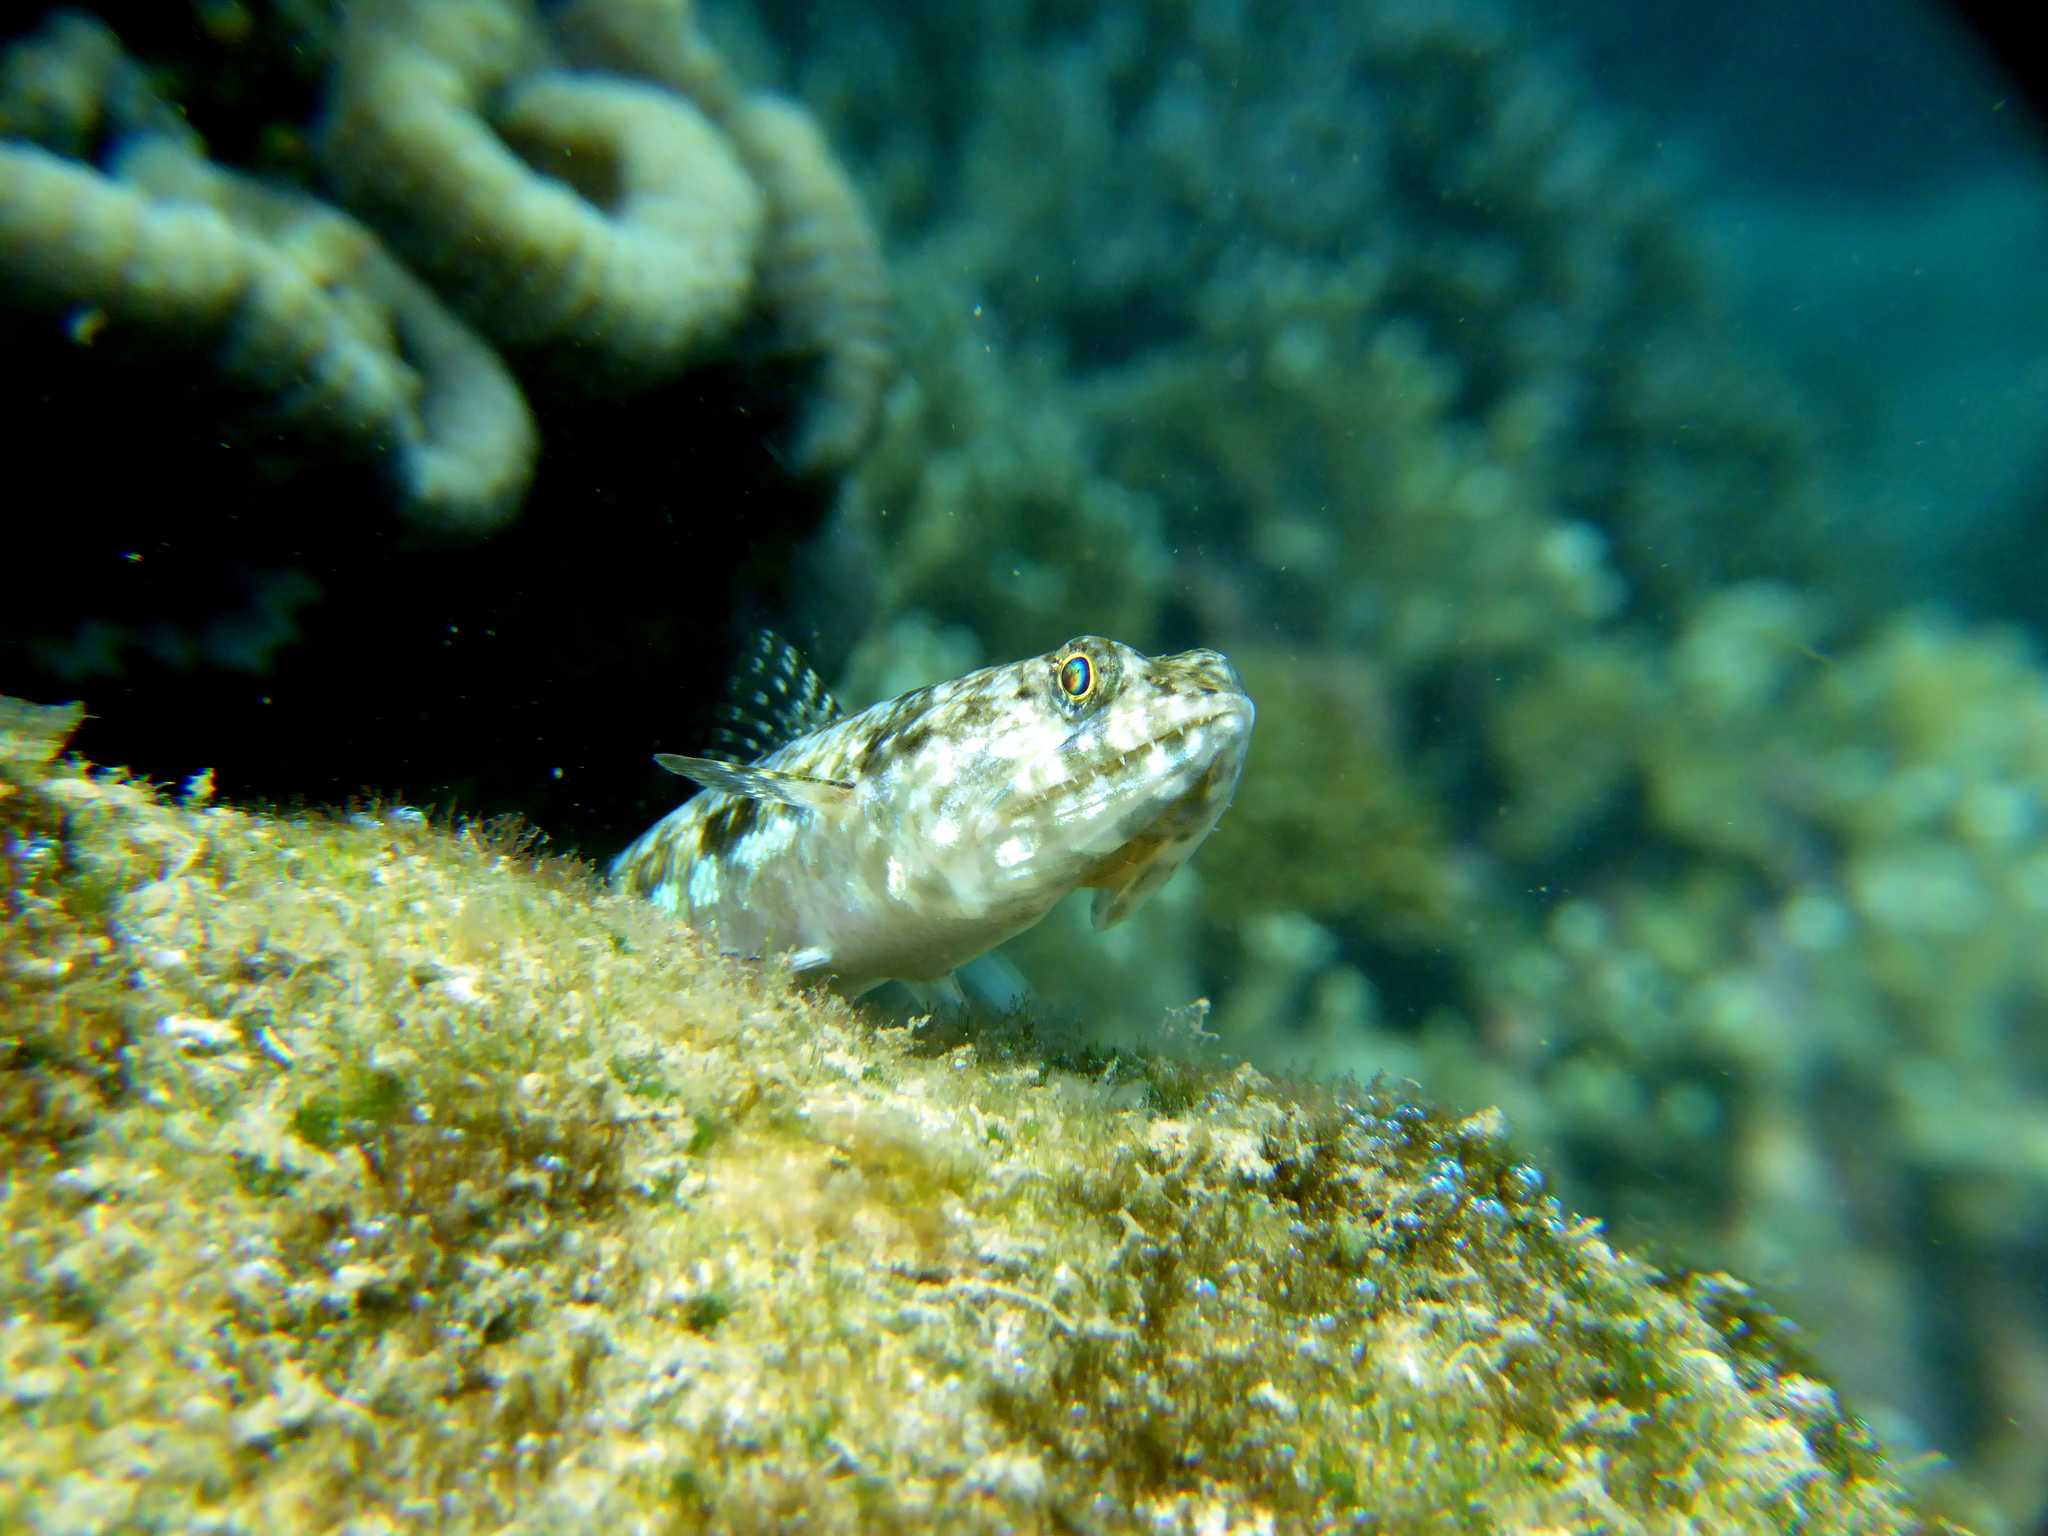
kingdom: Animalia
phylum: Chordata
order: Aulopiformes
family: Synodontidae
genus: Synodus
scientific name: Synodus dermatogenys
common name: Banded lizardfish
